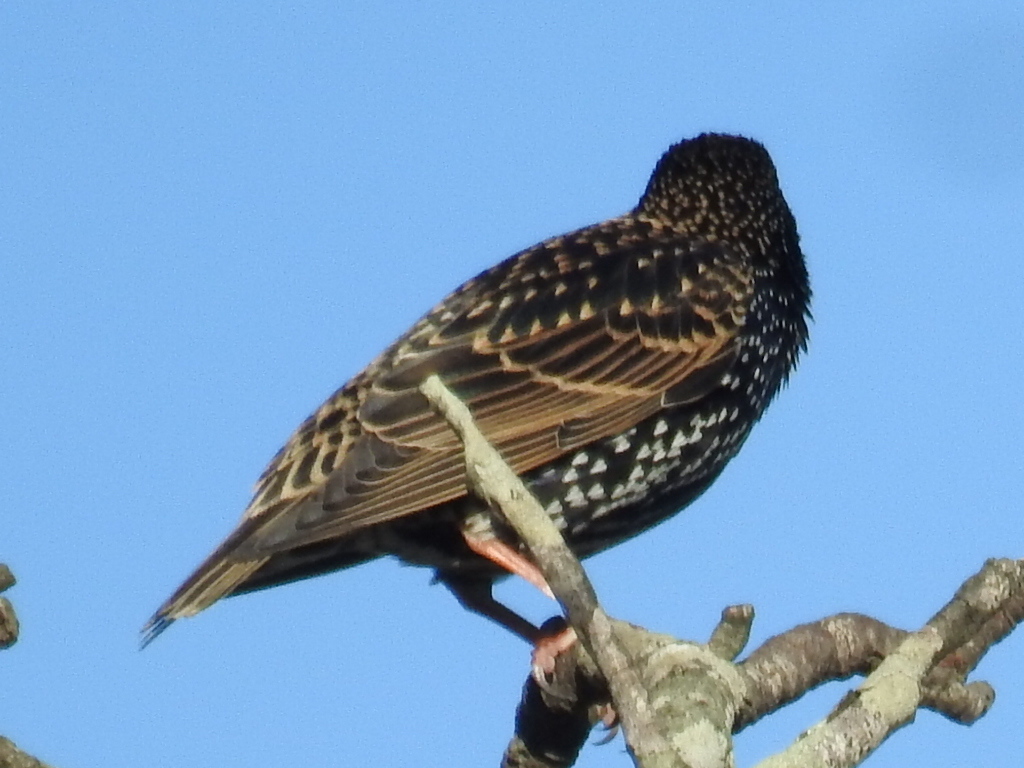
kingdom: Animalia
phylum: Chordata
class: Aves
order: Passeriformes
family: Sturnidae
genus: Sturnus
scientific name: Sturnus vulgaris
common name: Common starling
